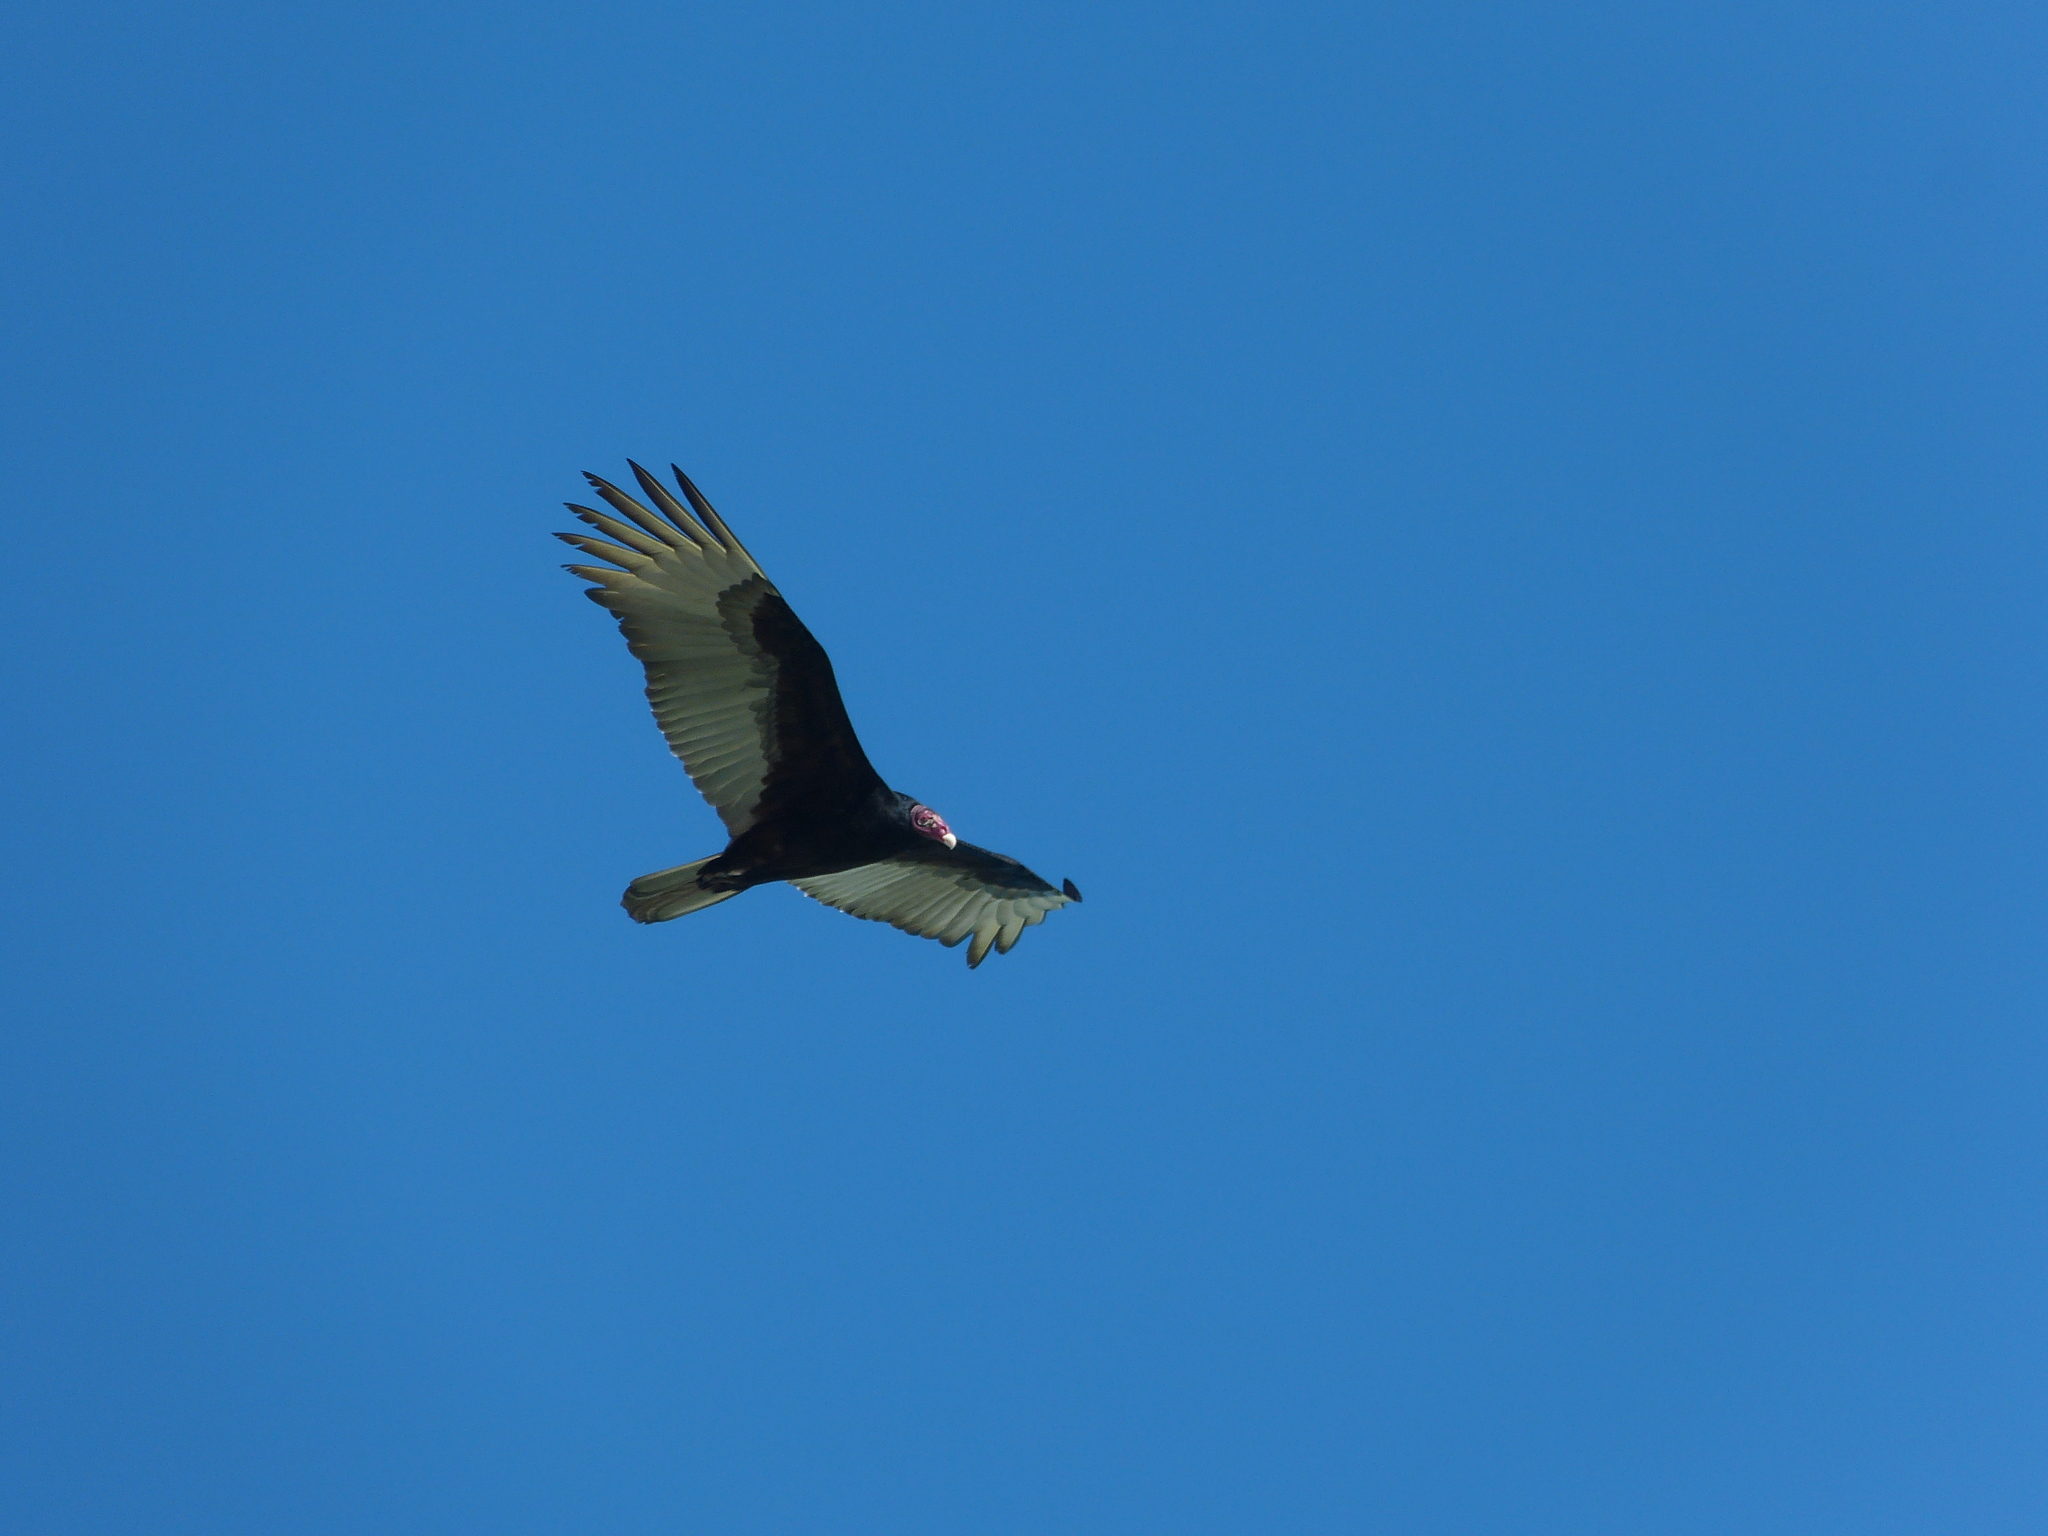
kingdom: Animalia
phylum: Chordata
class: Aves
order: Accipitriformes
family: Cathartidae
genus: Cathartes
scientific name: Cathartes aura
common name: Turkey vulture
